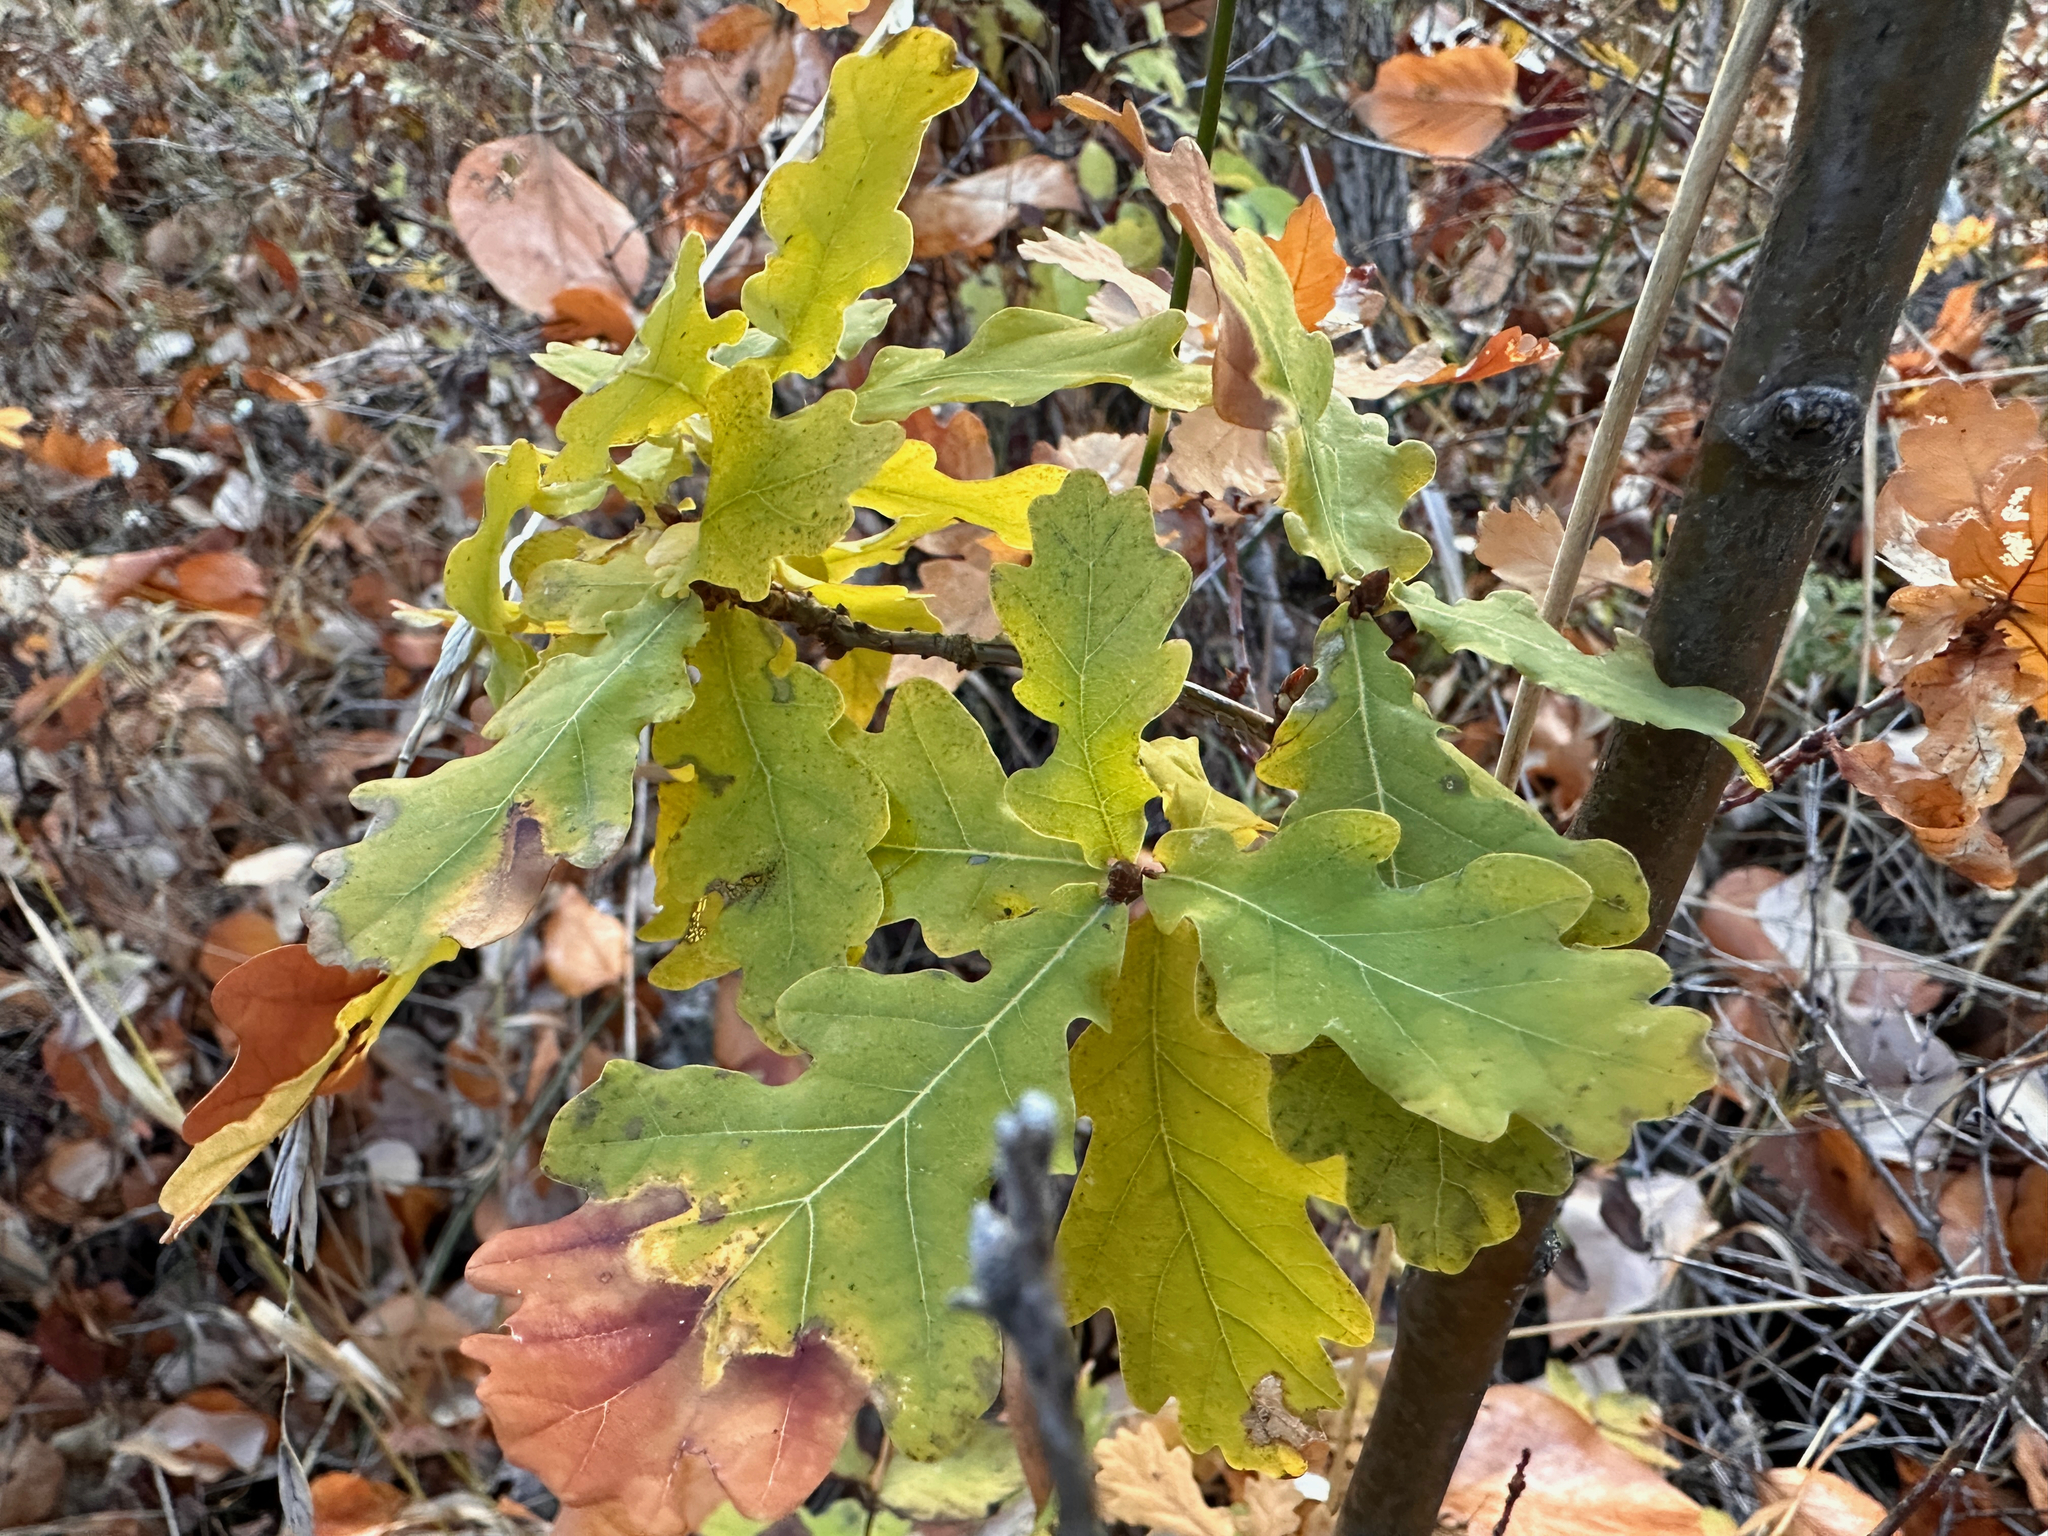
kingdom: Plantae
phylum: Tracheophyta
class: Magnoliopsida
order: Fagales
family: Fagaceae
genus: Quercus
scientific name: Quercus robur
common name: Pedunculate oak
